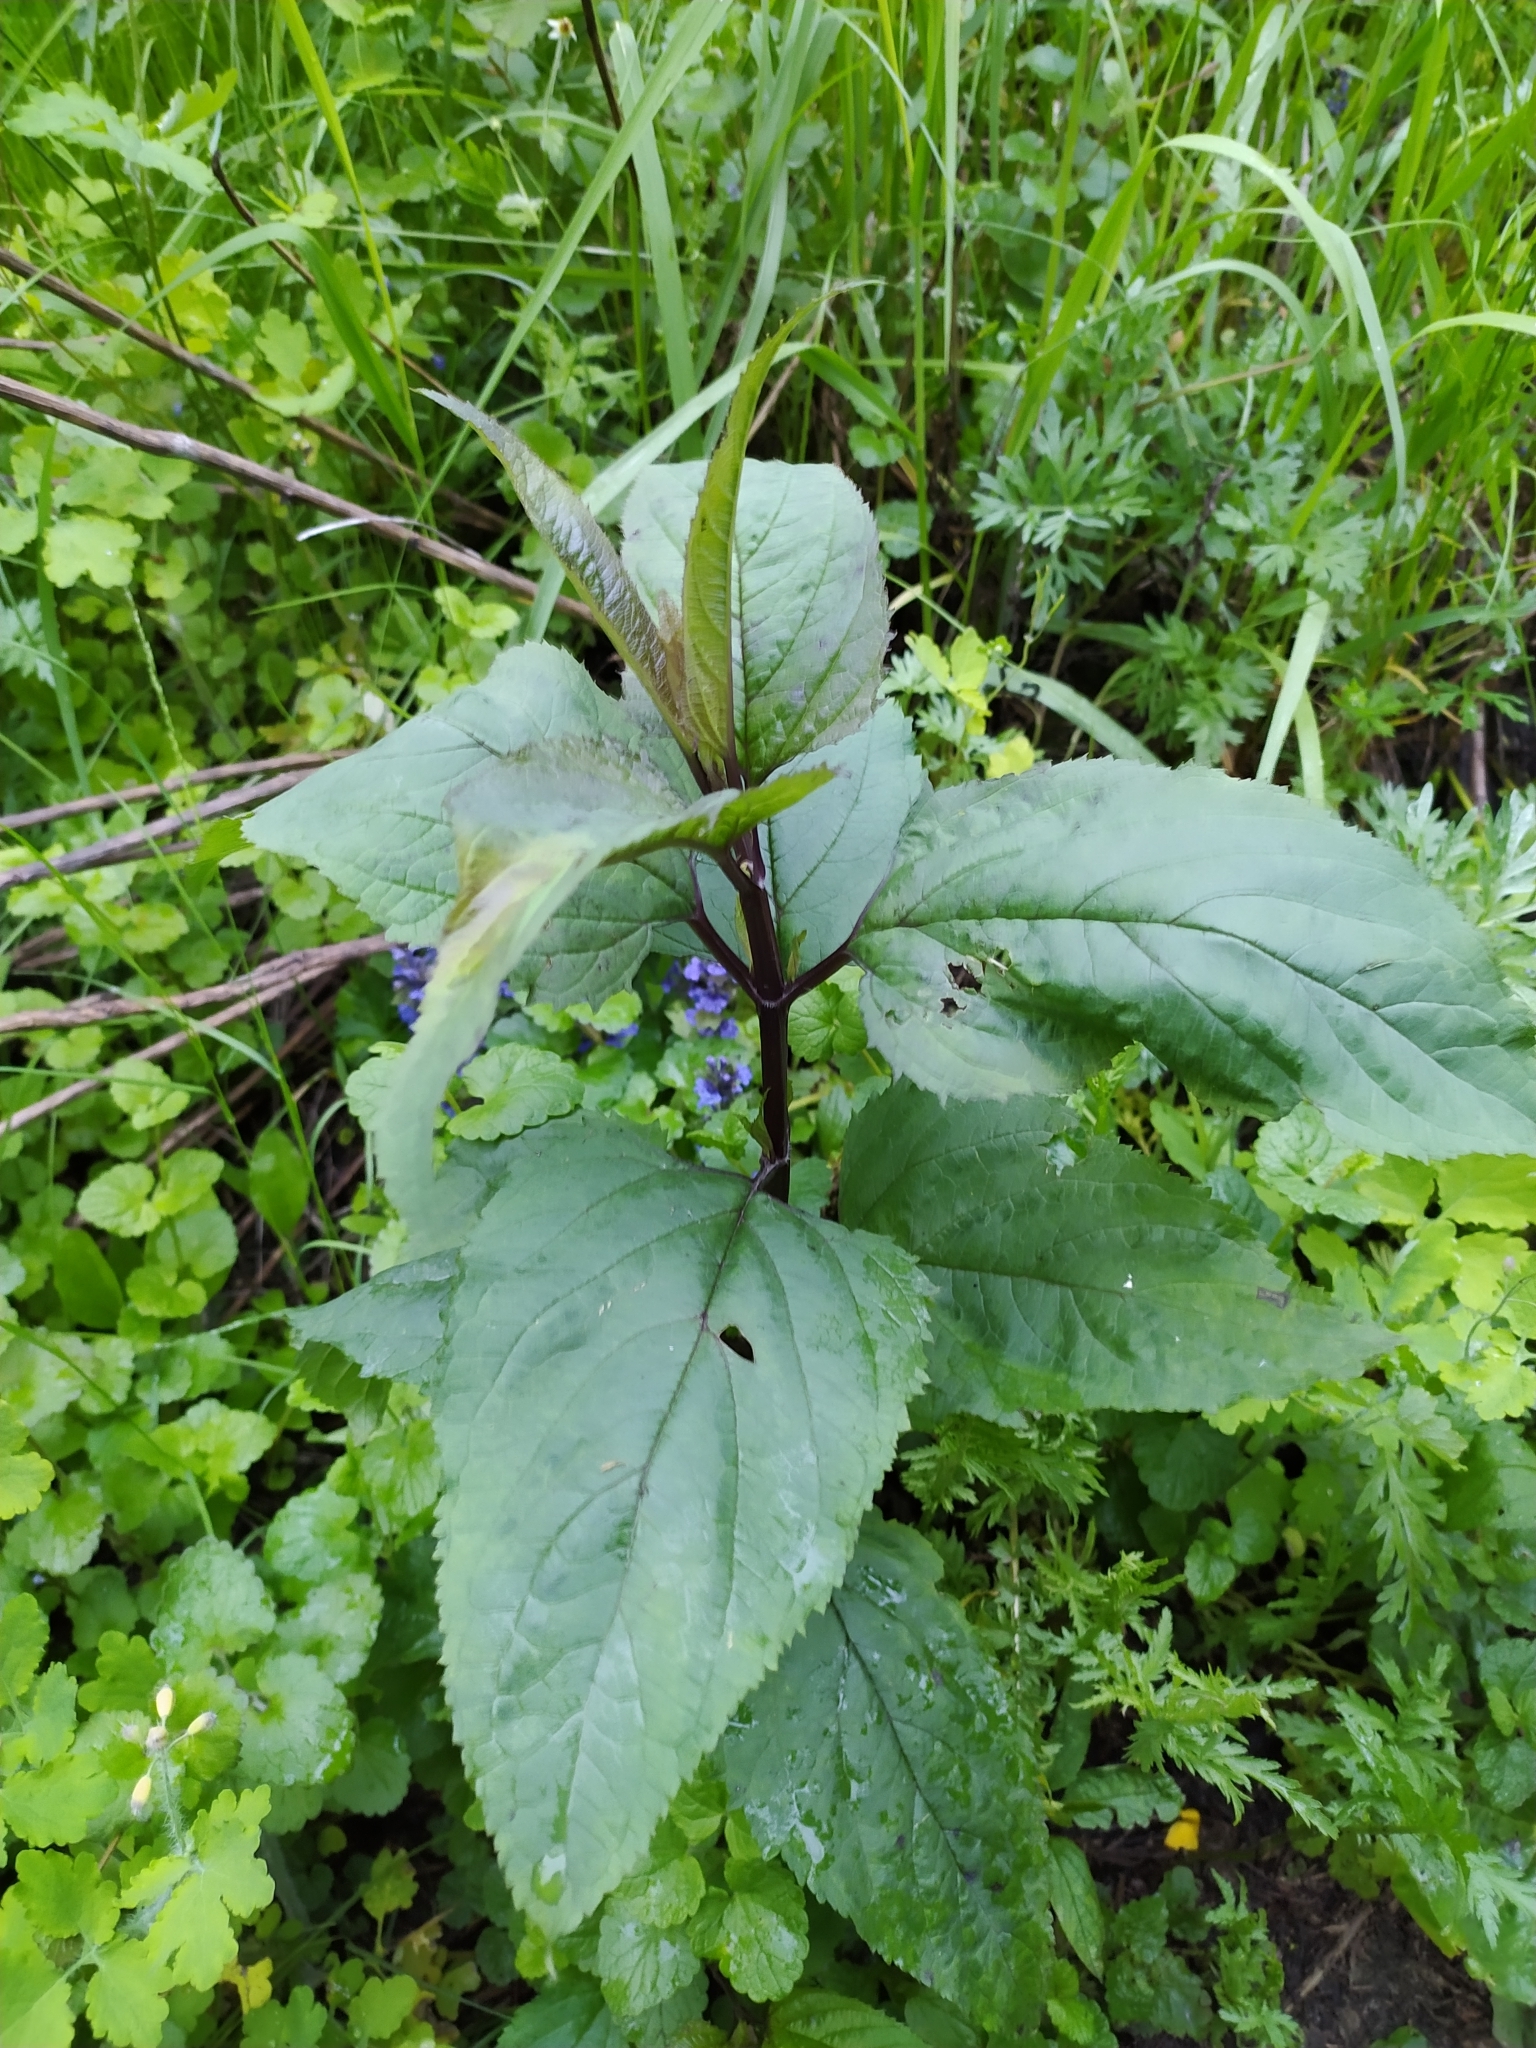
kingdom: Plantae
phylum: Tracheophyta
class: Magnoliopsida
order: Lamiales
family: Scrophulariaceae
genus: Scrophularia
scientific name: Scrophularia nodosa
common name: Common figwort
